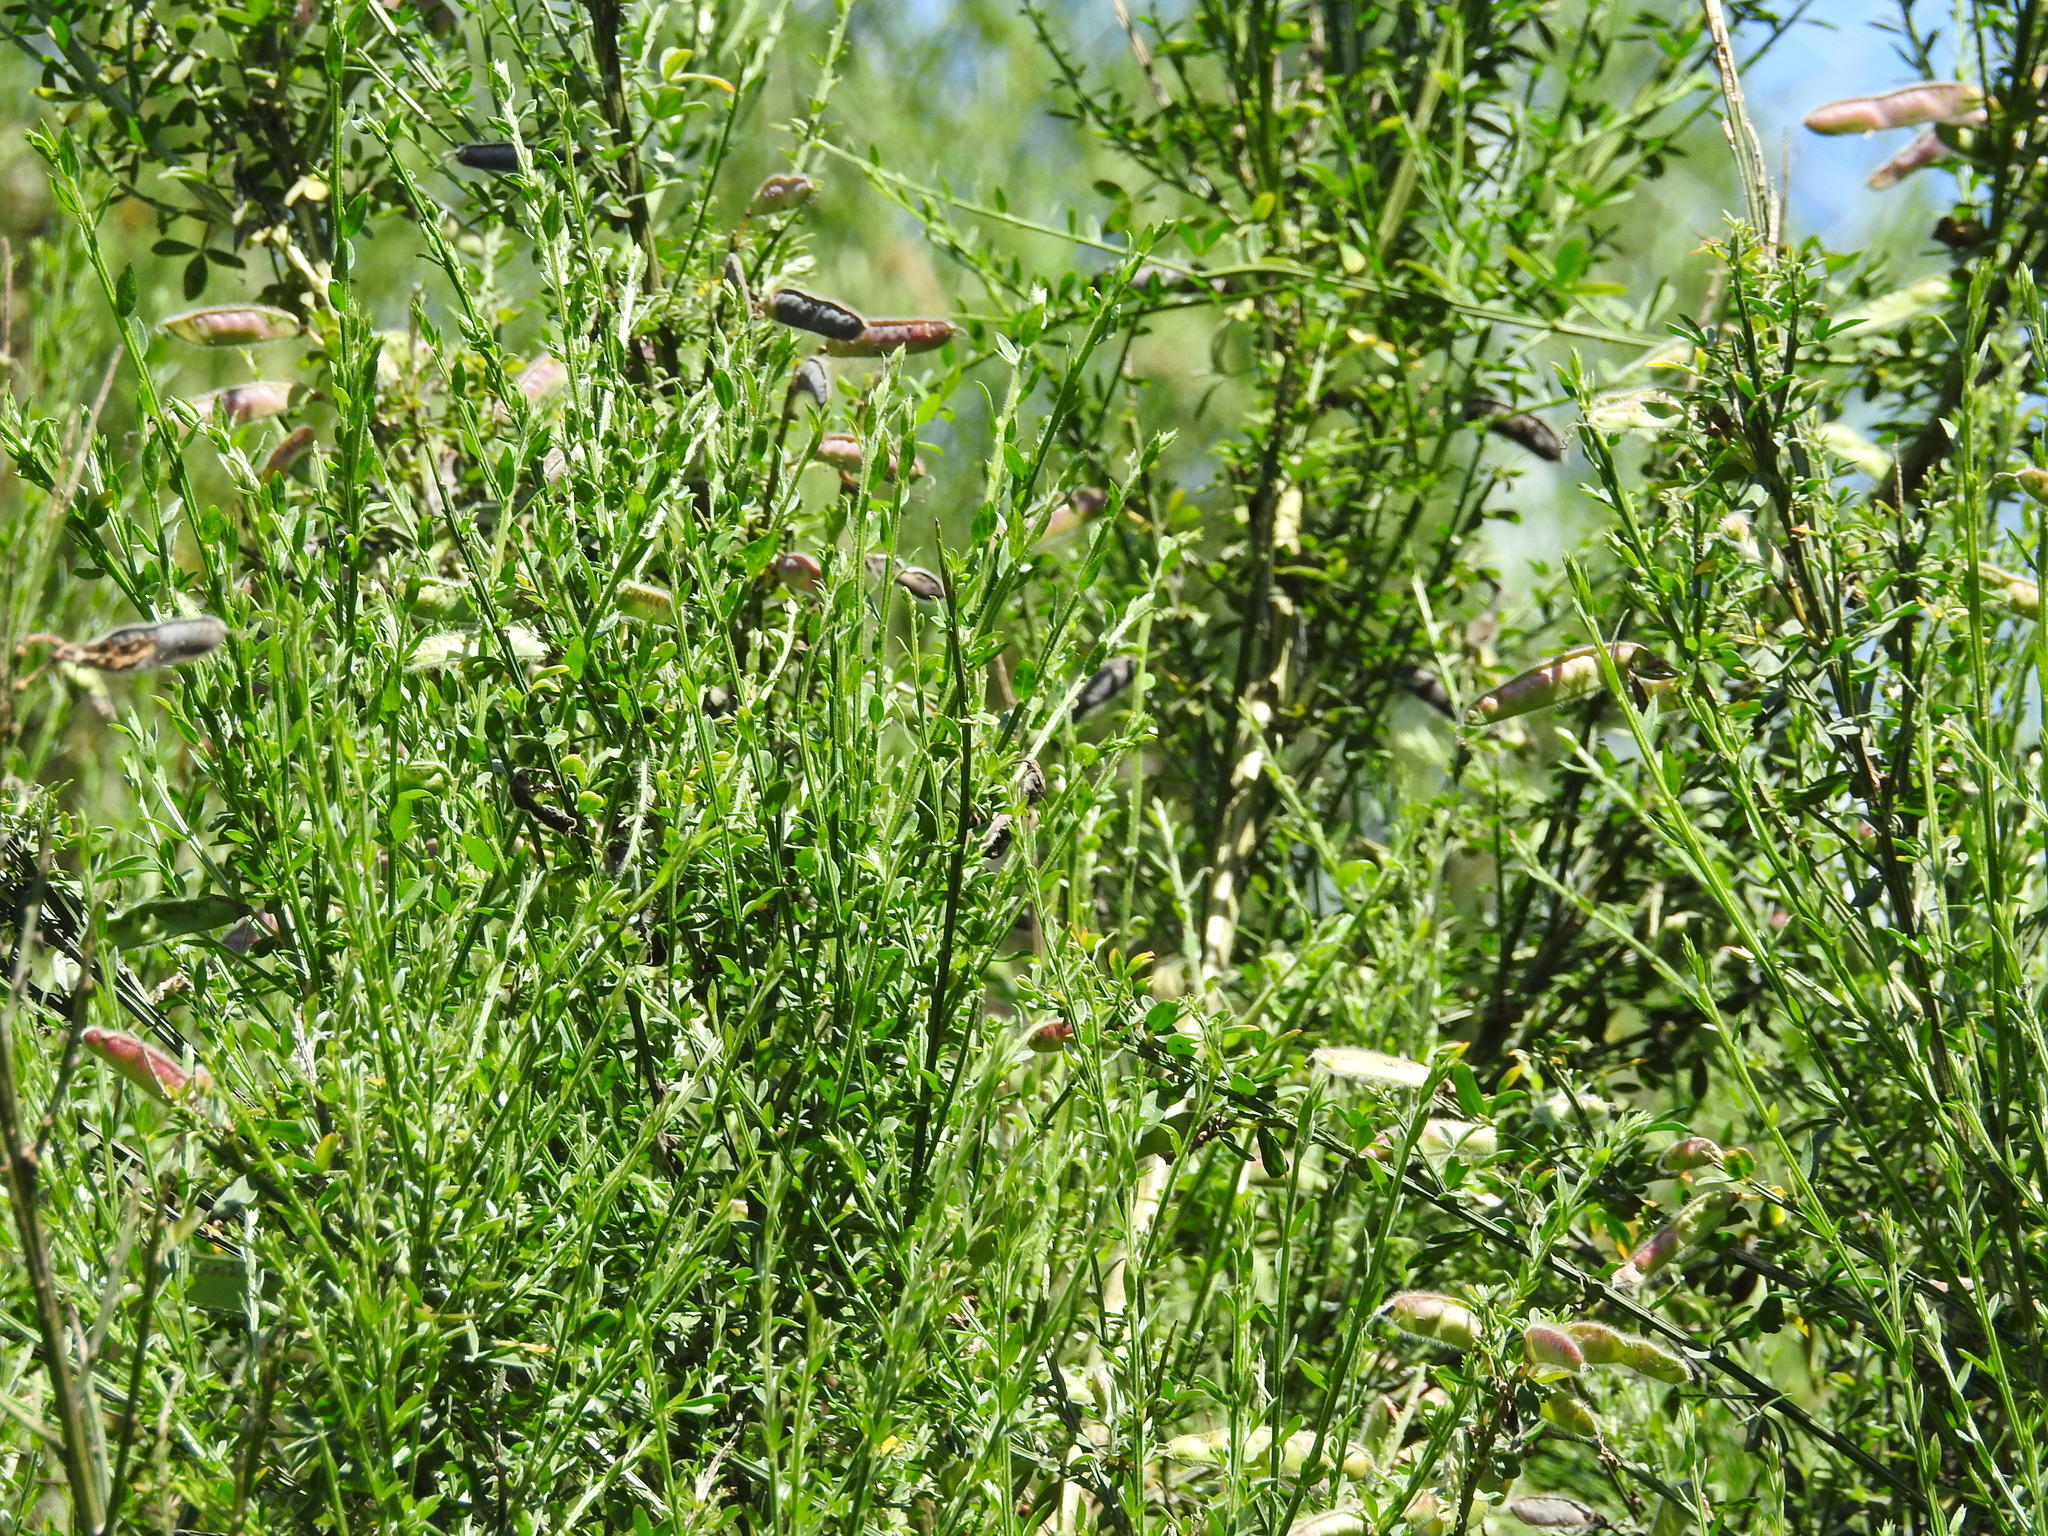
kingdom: Plantae
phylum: Tracheophyta
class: Magnoliopsida
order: Fabales
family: Fabaceae
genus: Cytisus
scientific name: Cytisus scoparius
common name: Scotch broom
